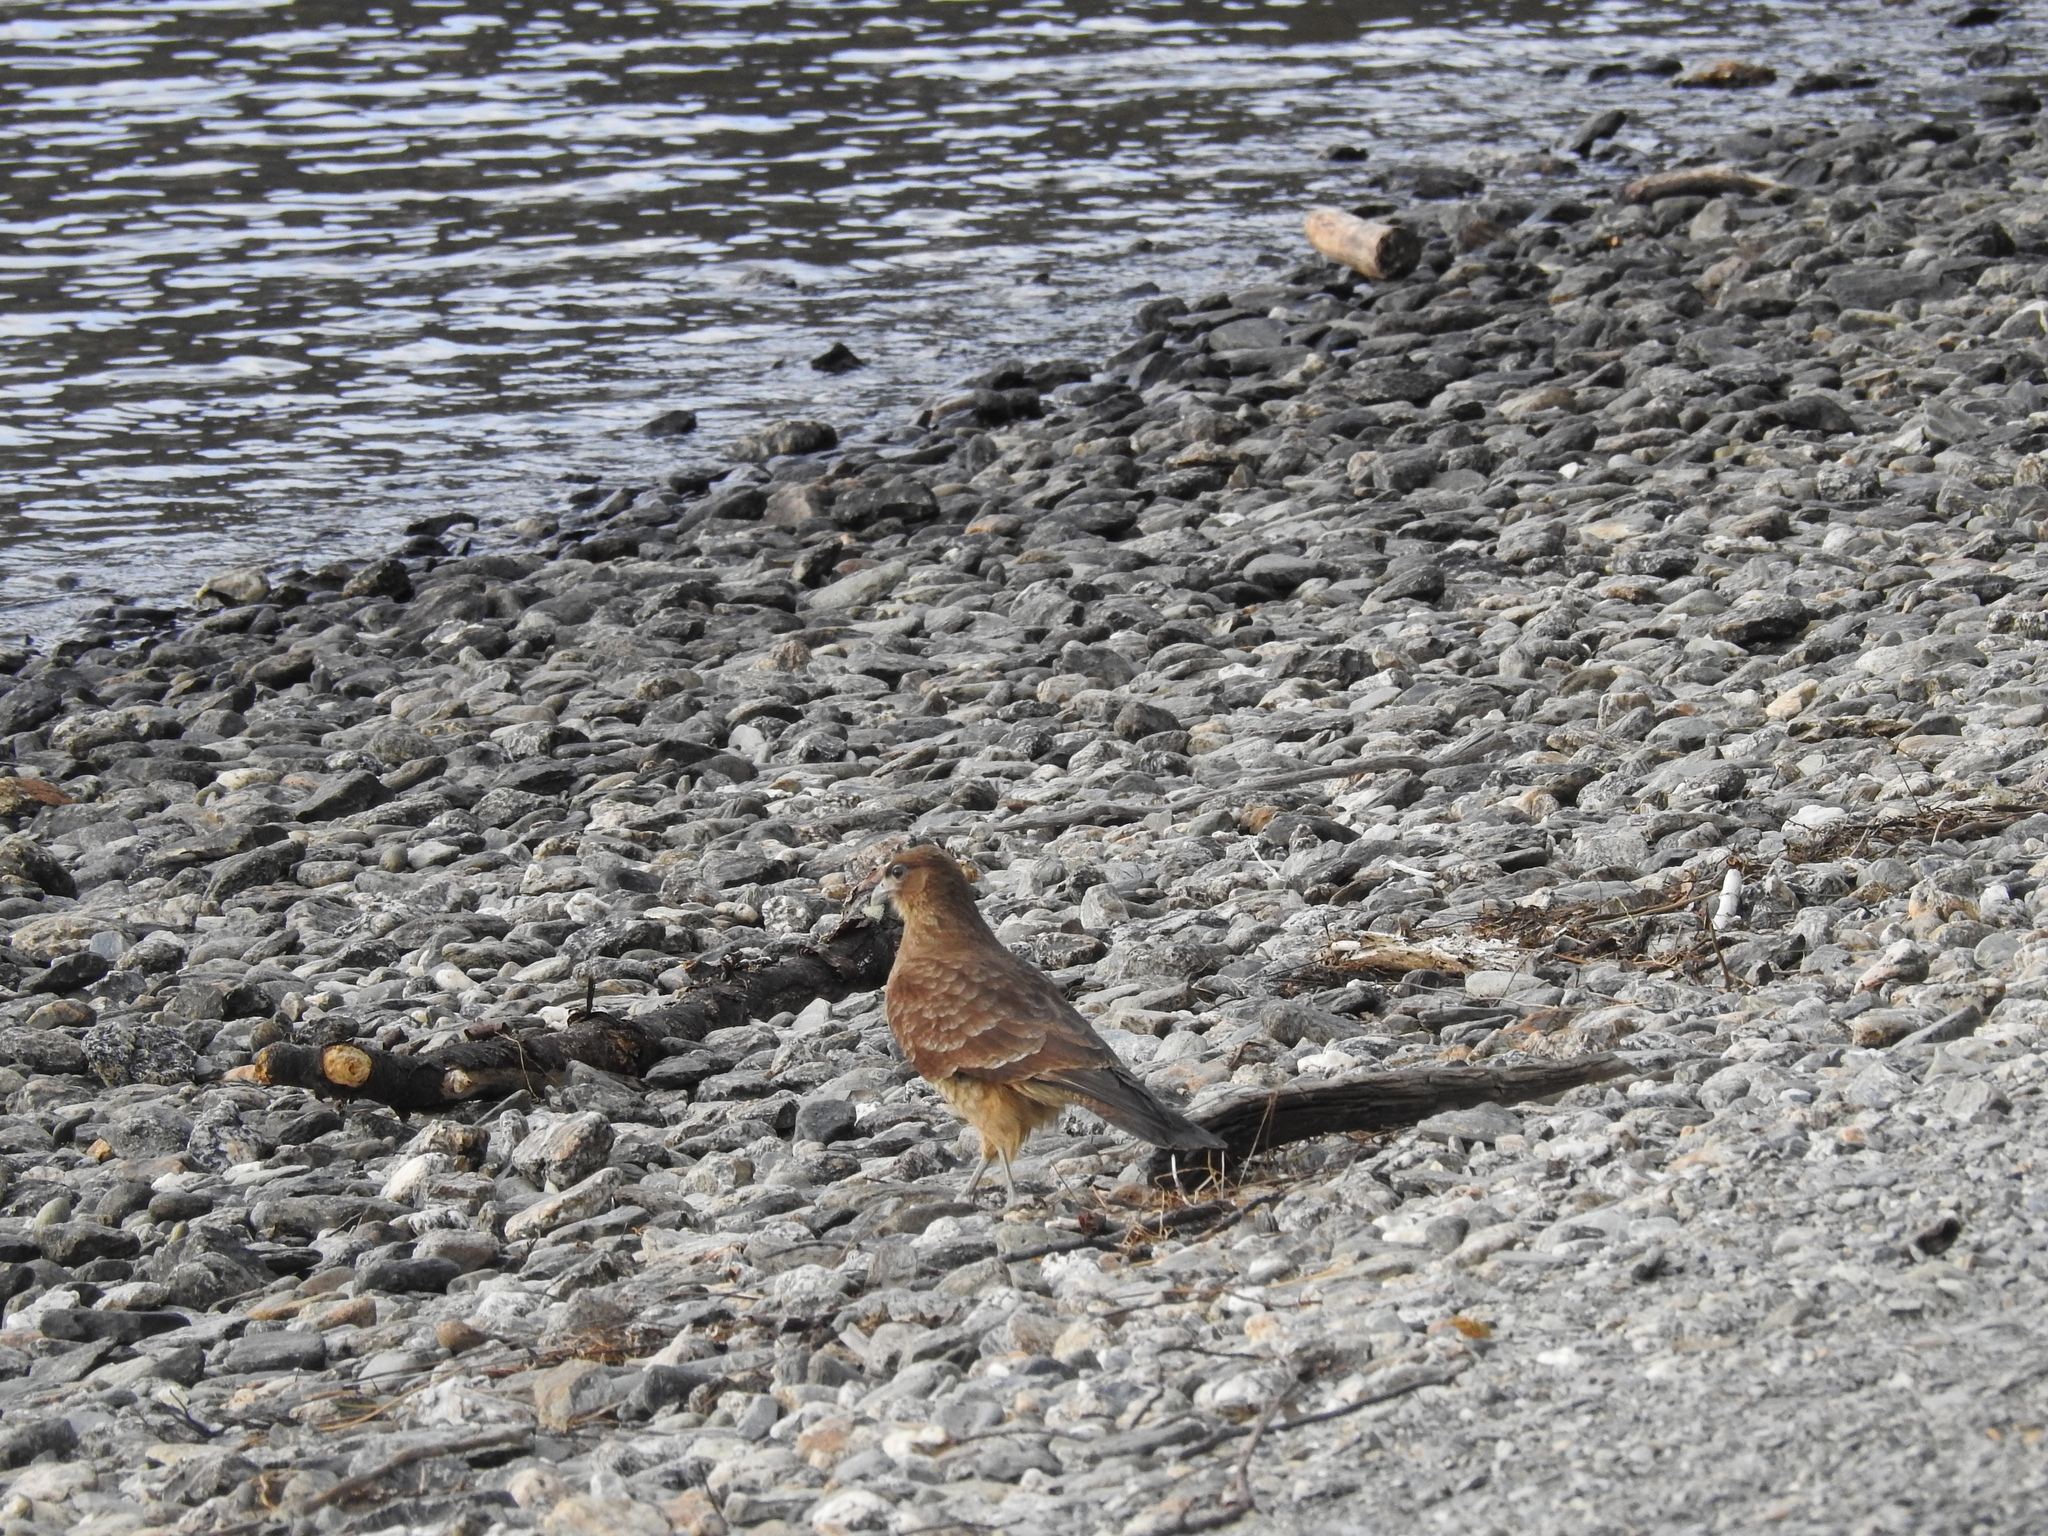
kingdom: Animalia
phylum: Chordata
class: Aves
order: Falconiformes
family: Falconidae
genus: Daptrius
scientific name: Daptrius
